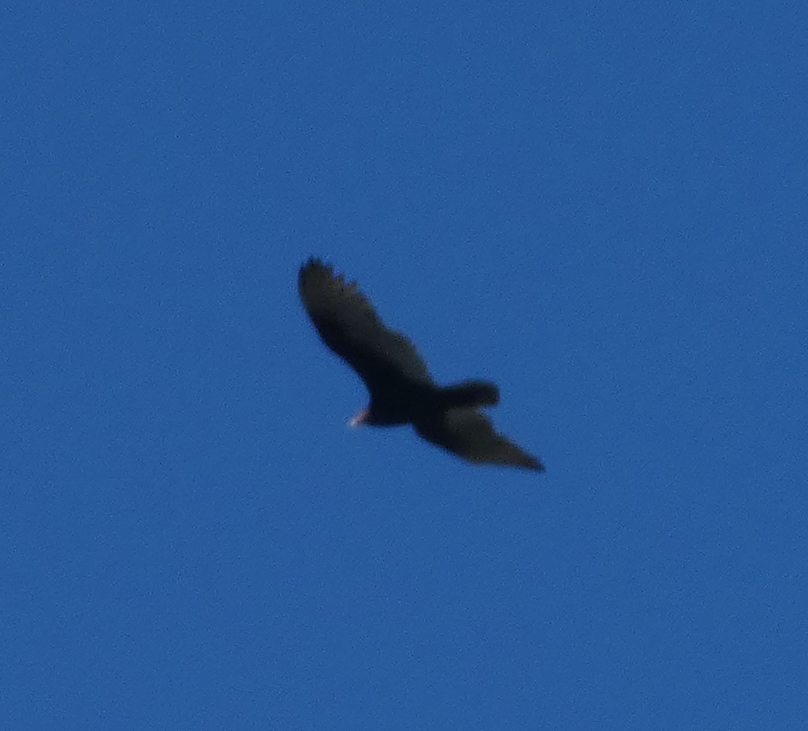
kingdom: Animalia
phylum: Chordata
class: Aves
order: Accipitriformes
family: Cathartidae
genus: Cathartes
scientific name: Cathartes aura
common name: Turkey vulture
